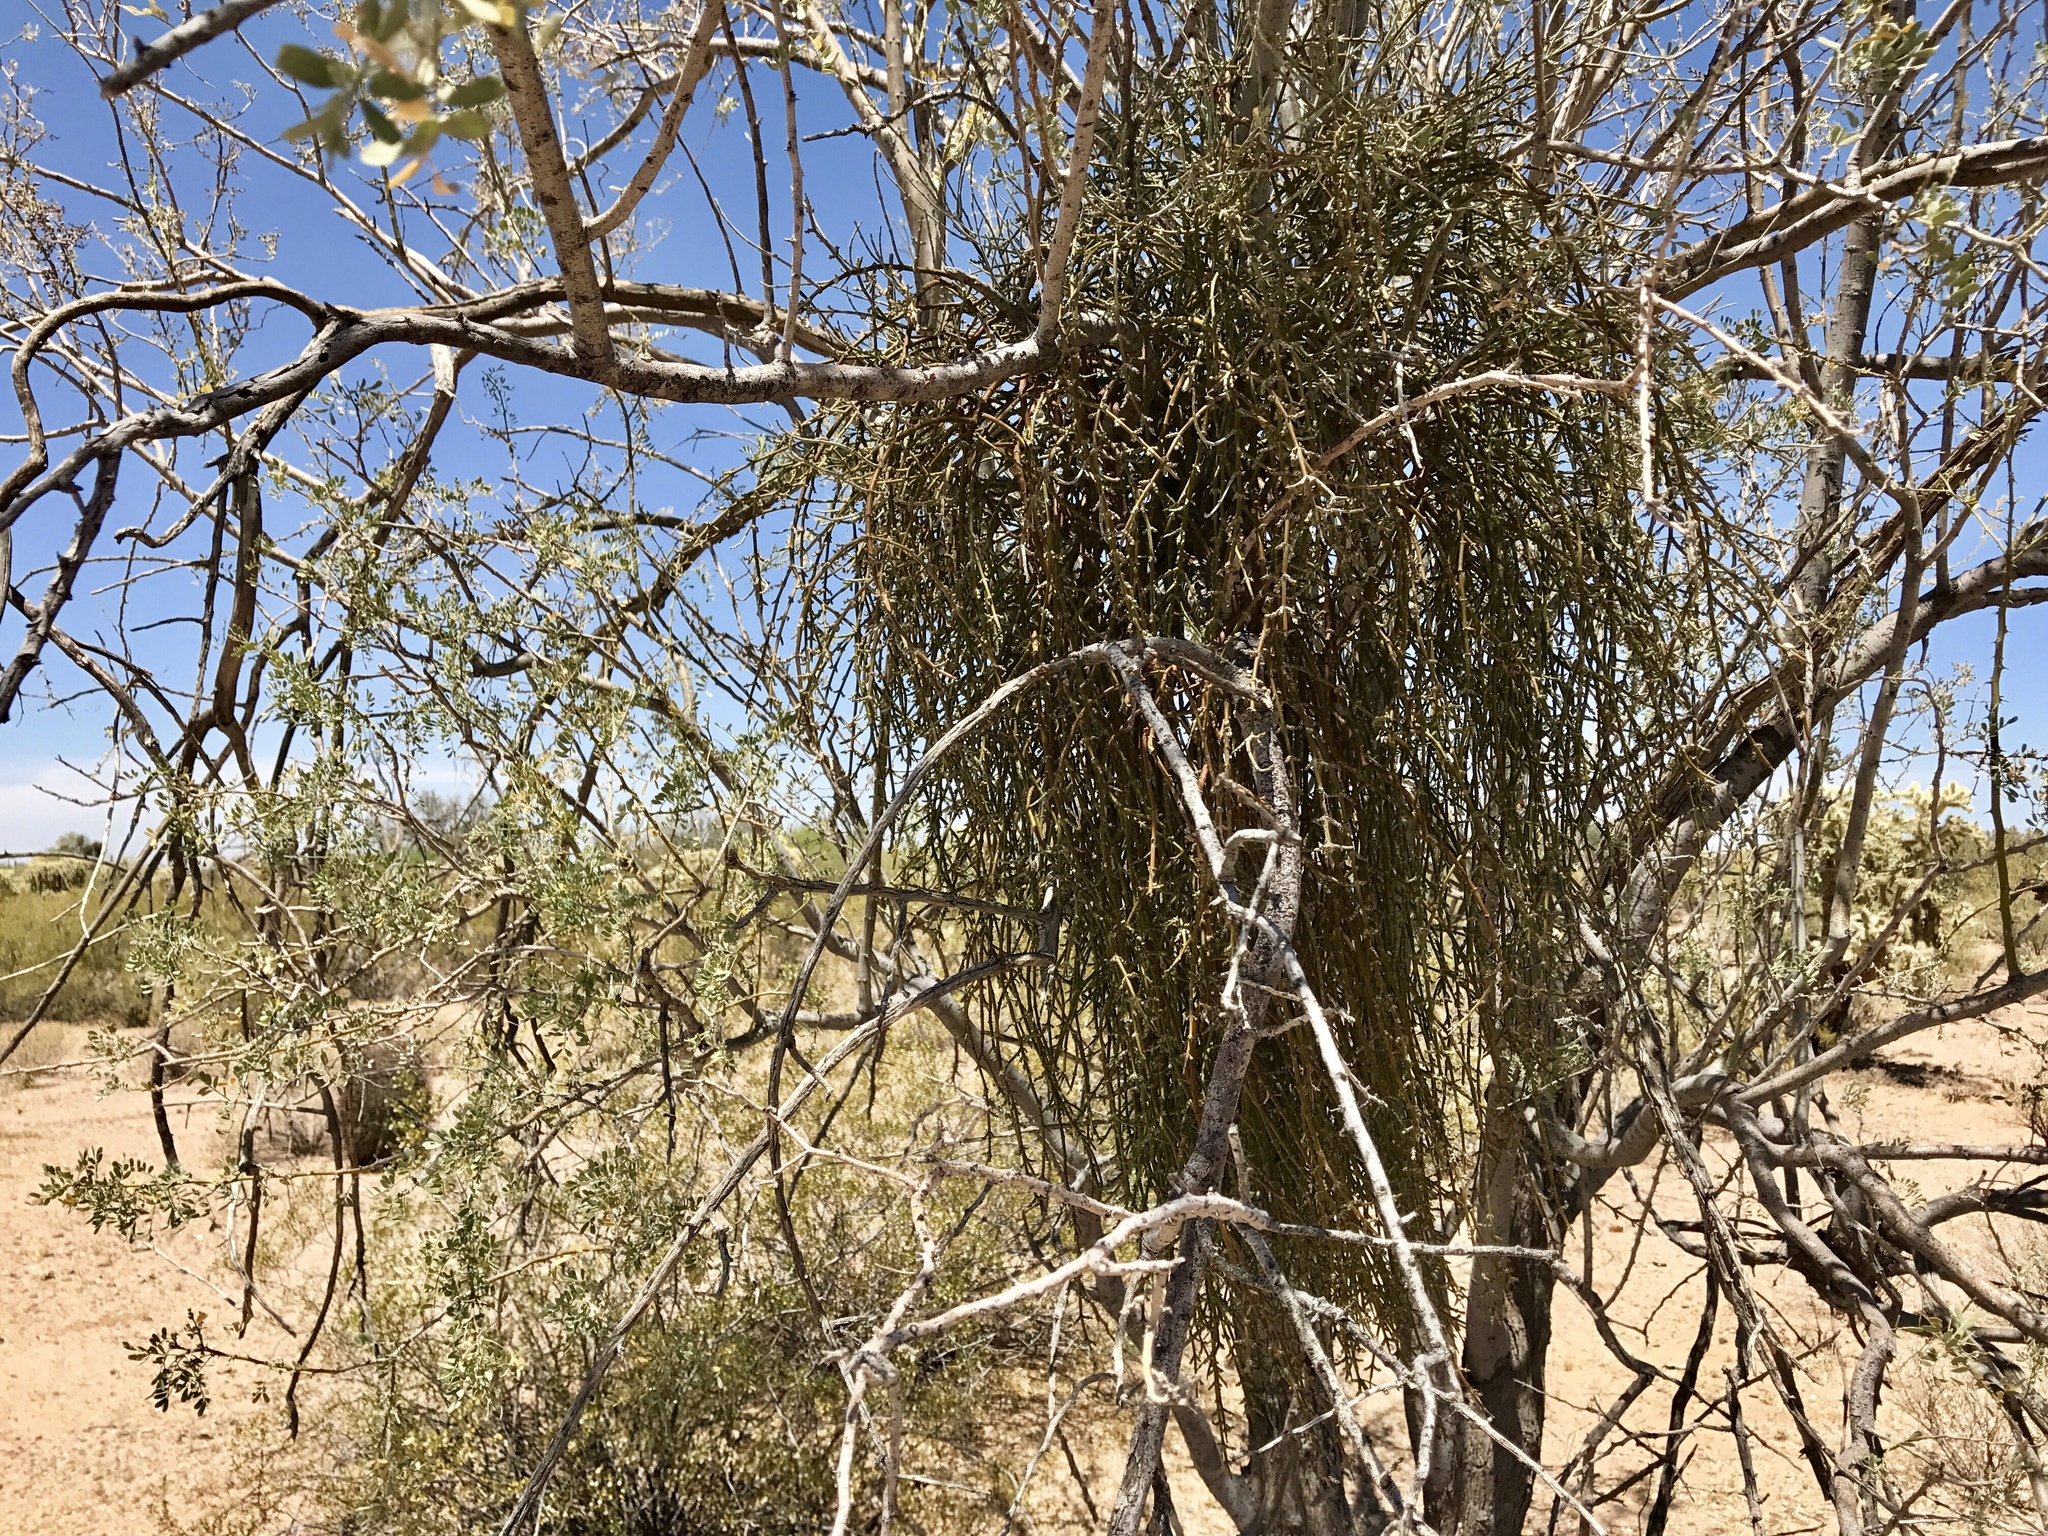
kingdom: Plantae
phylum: Tracheophyta
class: Magnoliopsida
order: Santalales
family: Viscaceae
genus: Phoradendron
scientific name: Phoradendron californicum
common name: Acacia mistletoe
